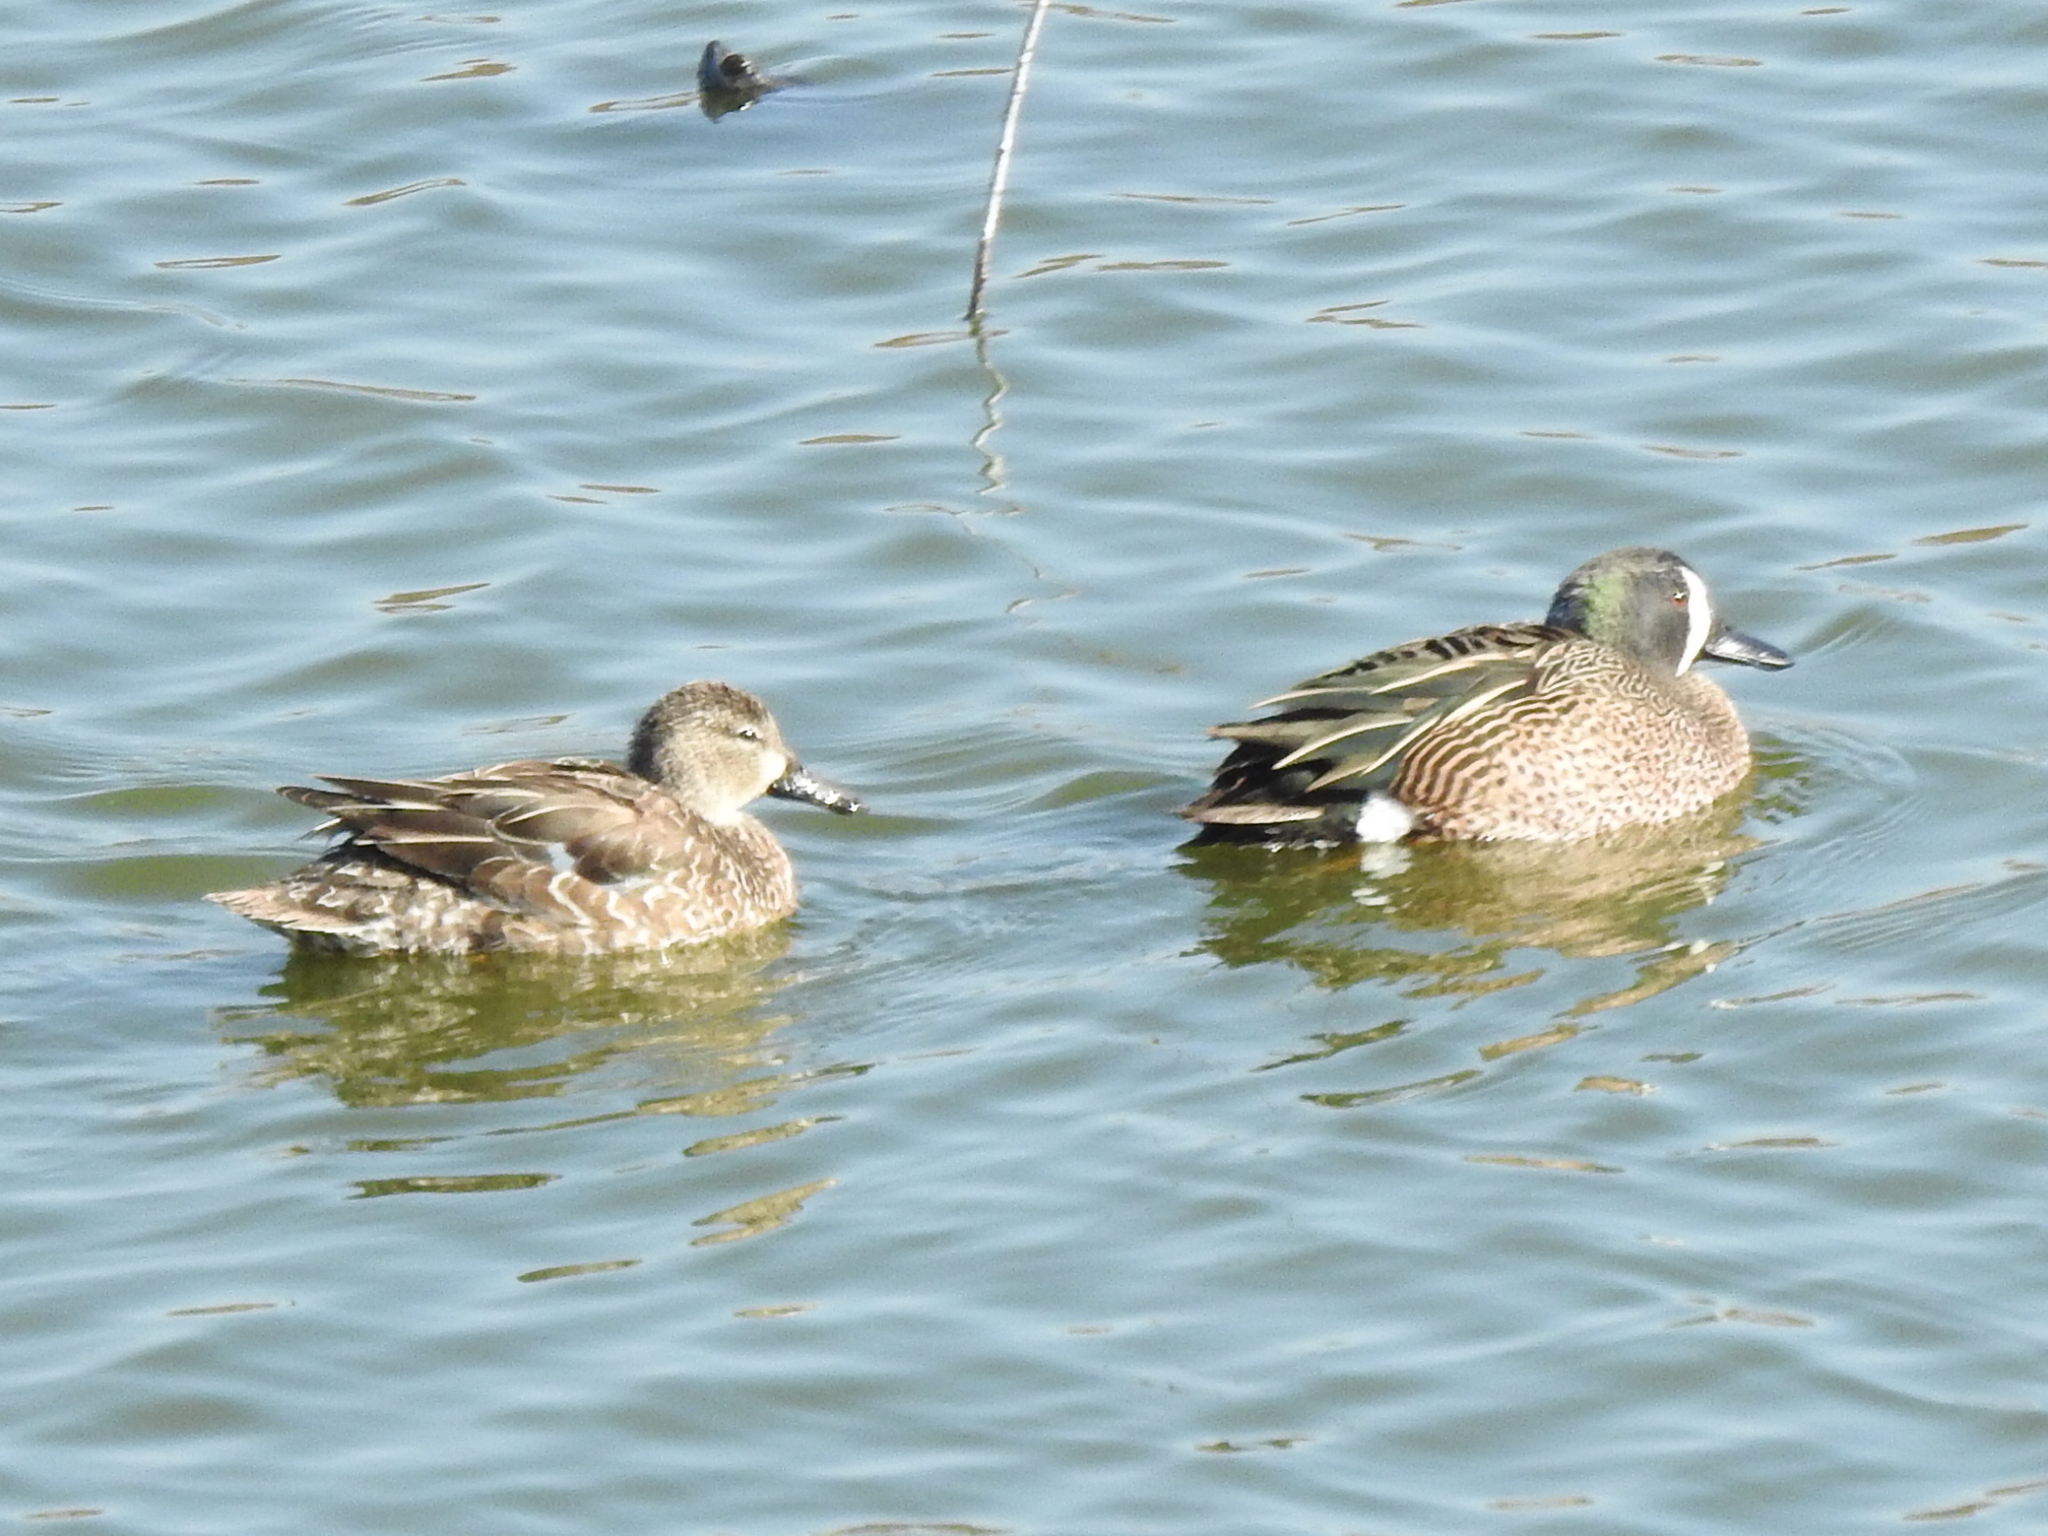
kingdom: Animalia
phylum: Chordata
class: Aves
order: Anseriformes
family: Anatidae
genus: Spatula
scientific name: Spatula discors
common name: Blue-winged teal
